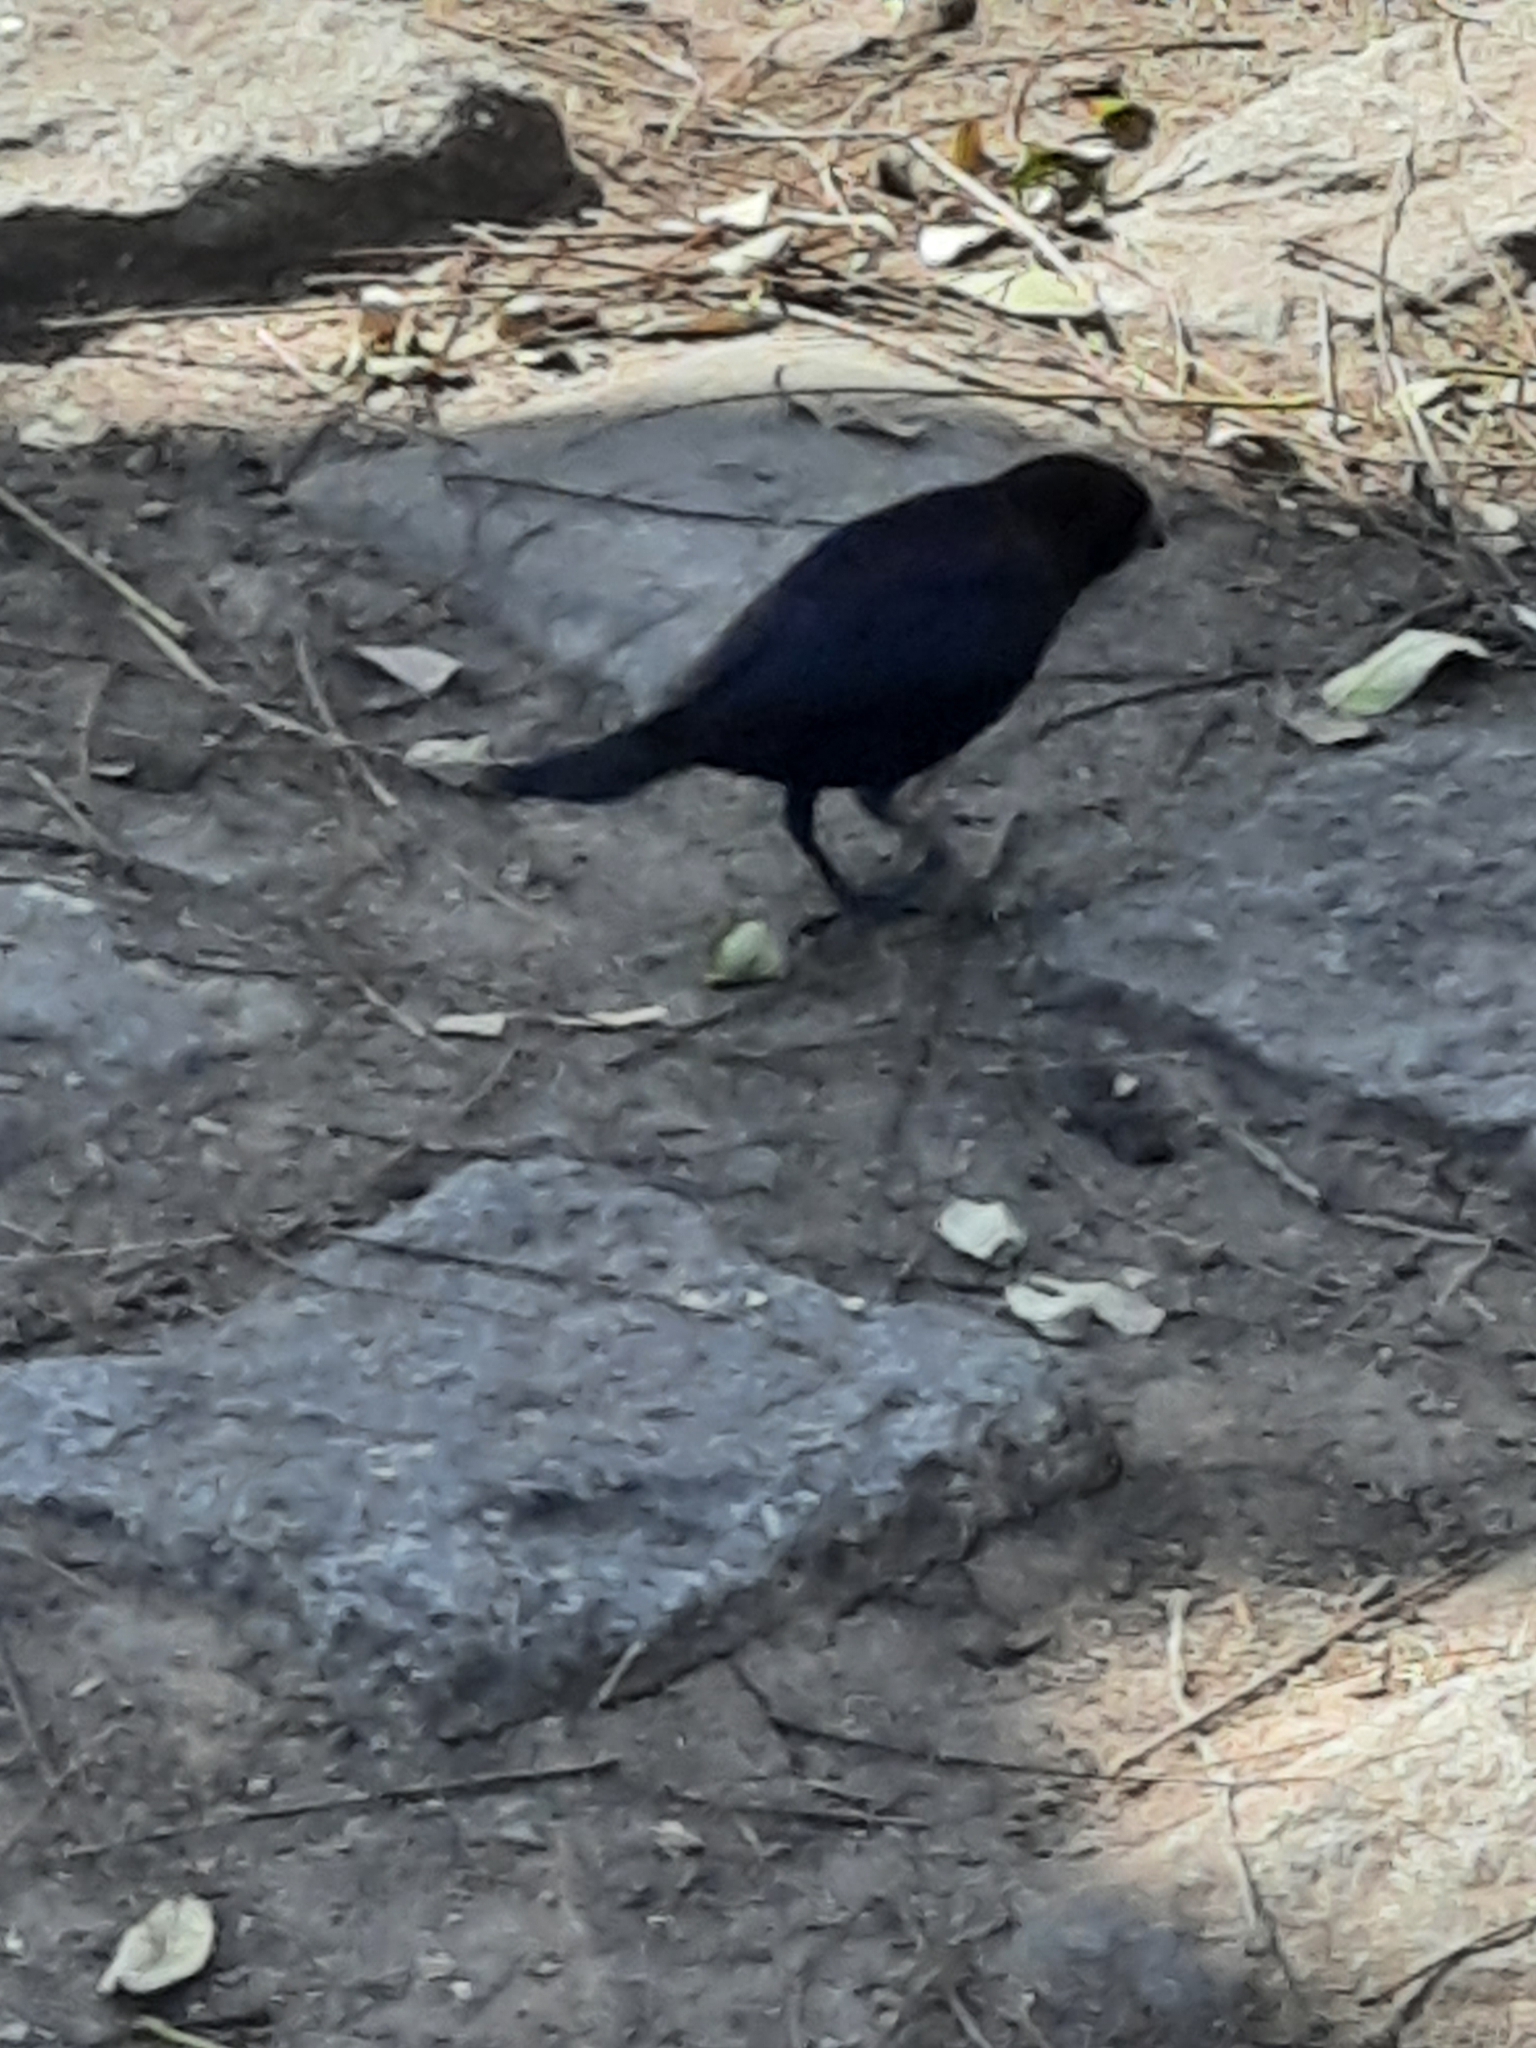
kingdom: Animalia
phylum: Chordata
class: Aves
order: Passeriformes
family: Icteridae
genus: Molothrus
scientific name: Molothrus bonariensis
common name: Shiny cowbird
